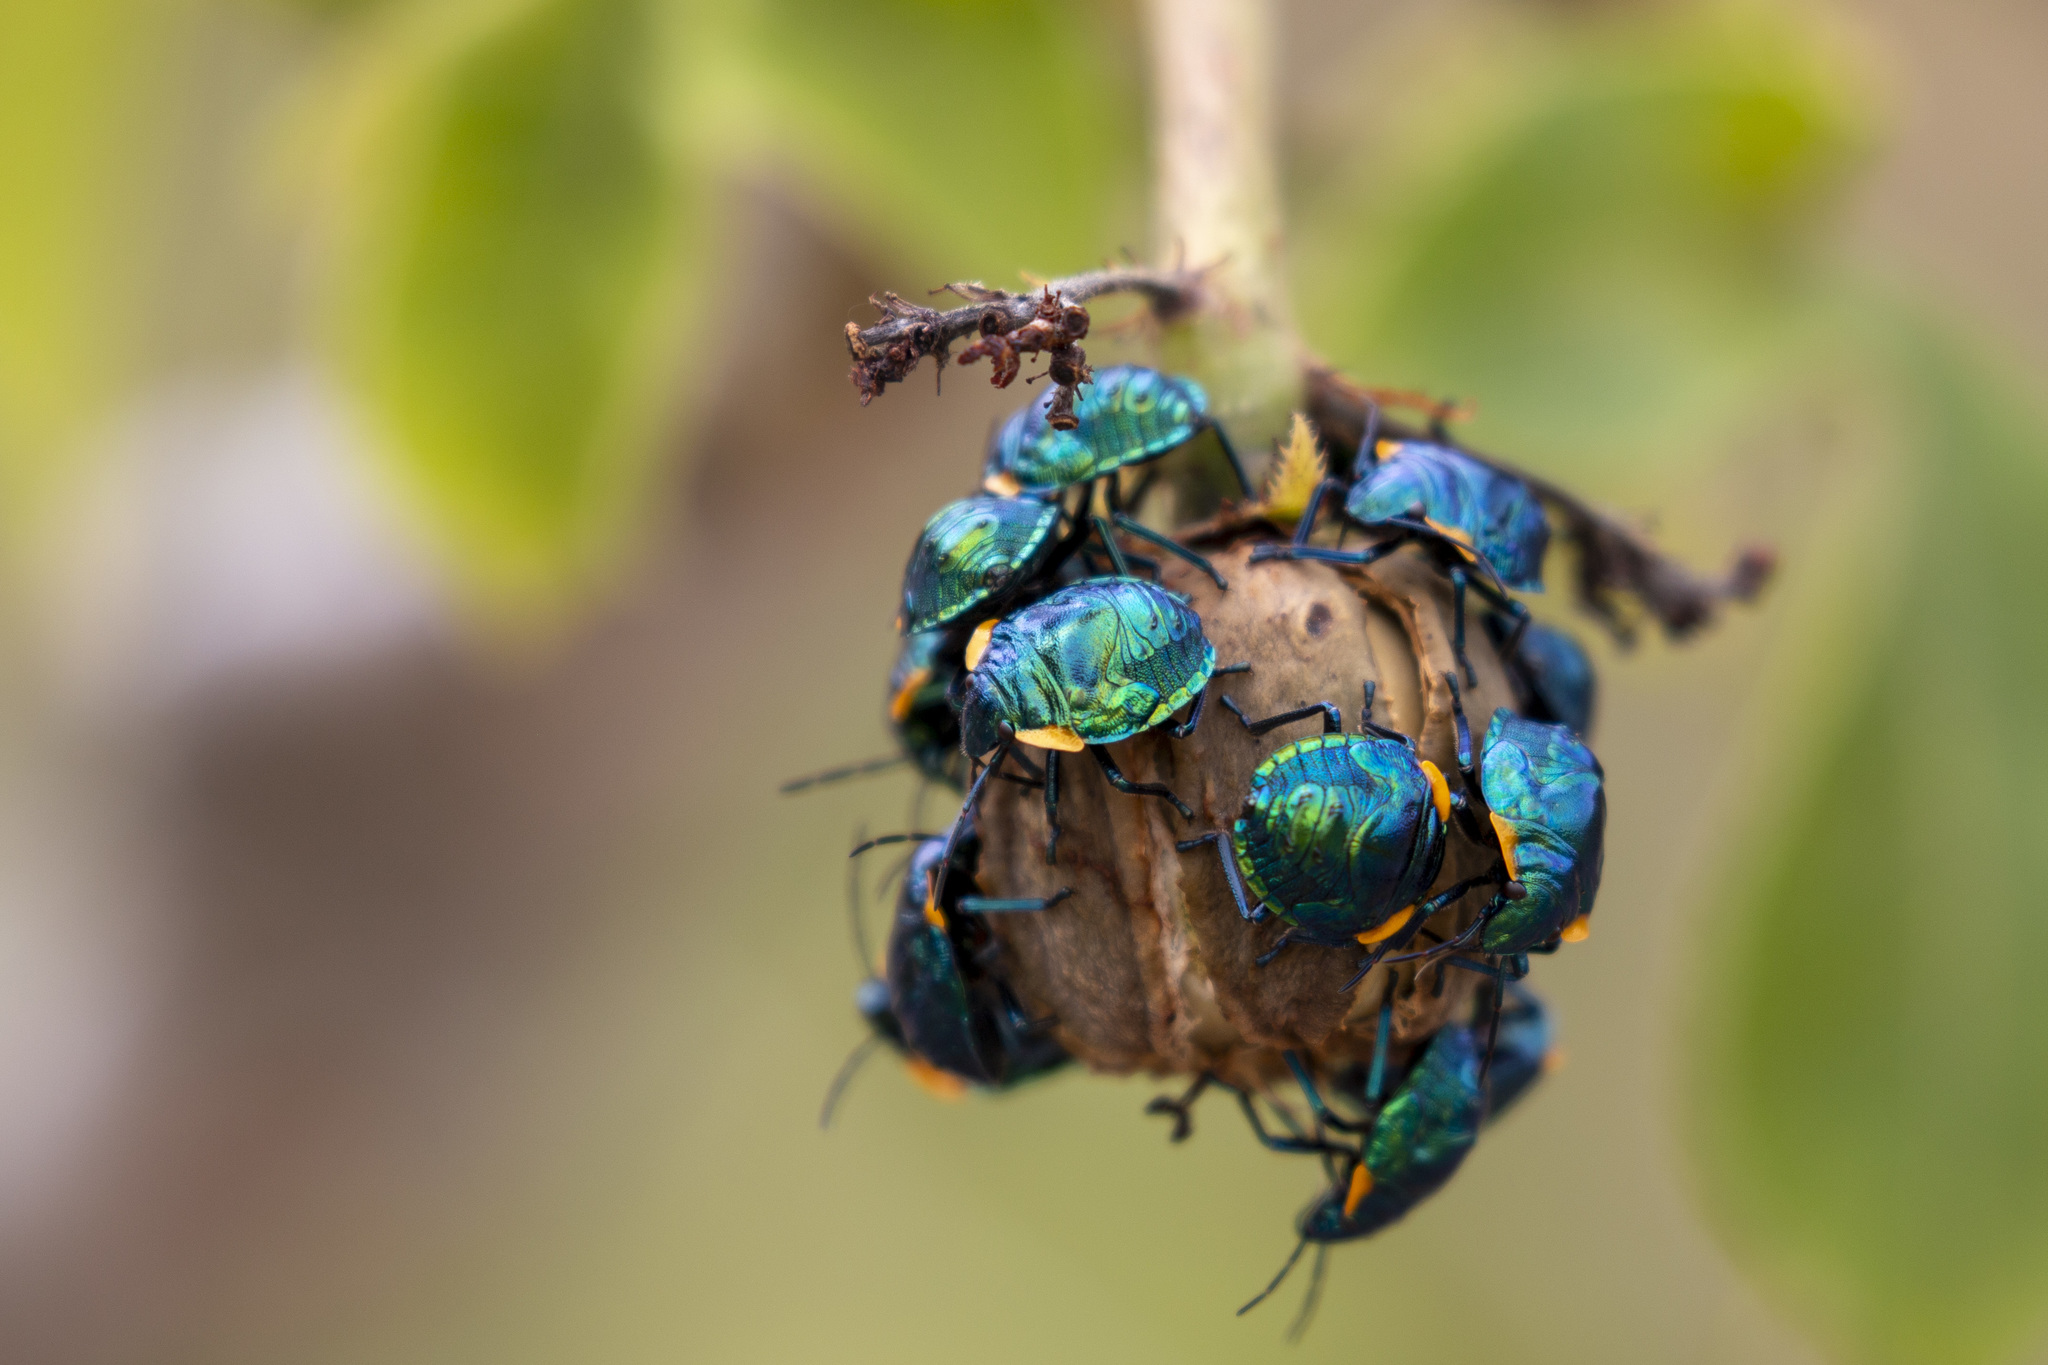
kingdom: Animalia
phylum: Arthropoda
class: Insecta
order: Hemiptera
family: Scutelleridae
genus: Pachycoris
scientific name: Pachycoris torridus
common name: Torrid jewel bug
